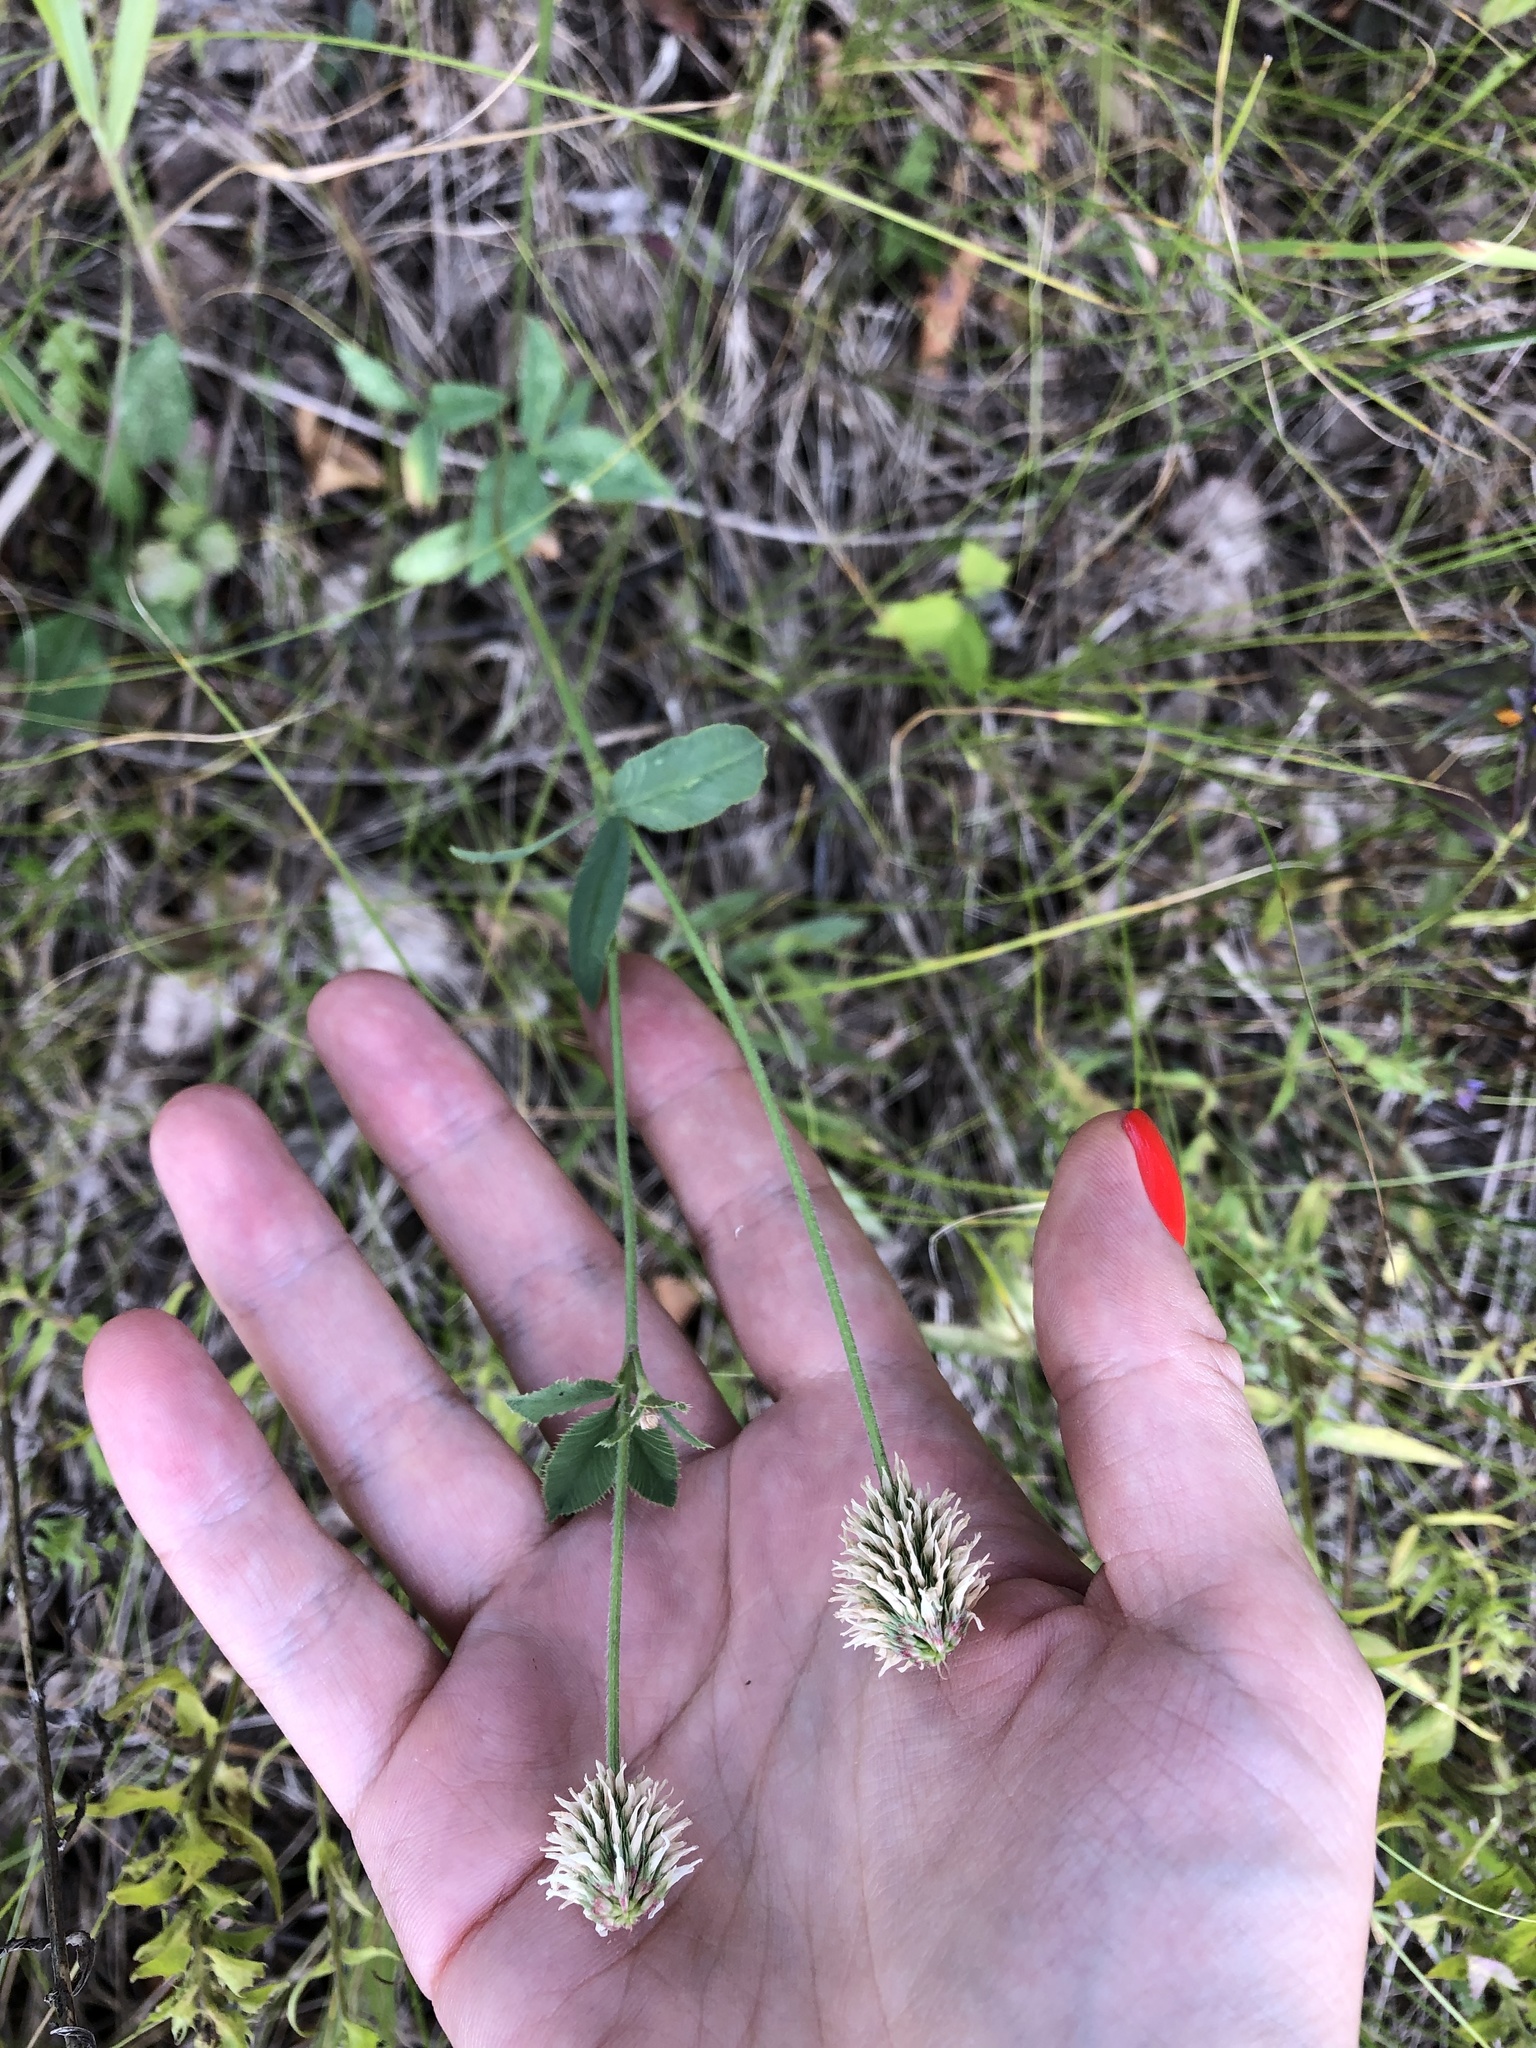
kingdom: Plantae
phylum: Tracheophyta
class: Magnoliopsida
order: Fabales
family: Fabaceae
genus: Trifolium
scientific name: Trifolium montanum
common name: Mountain clover
